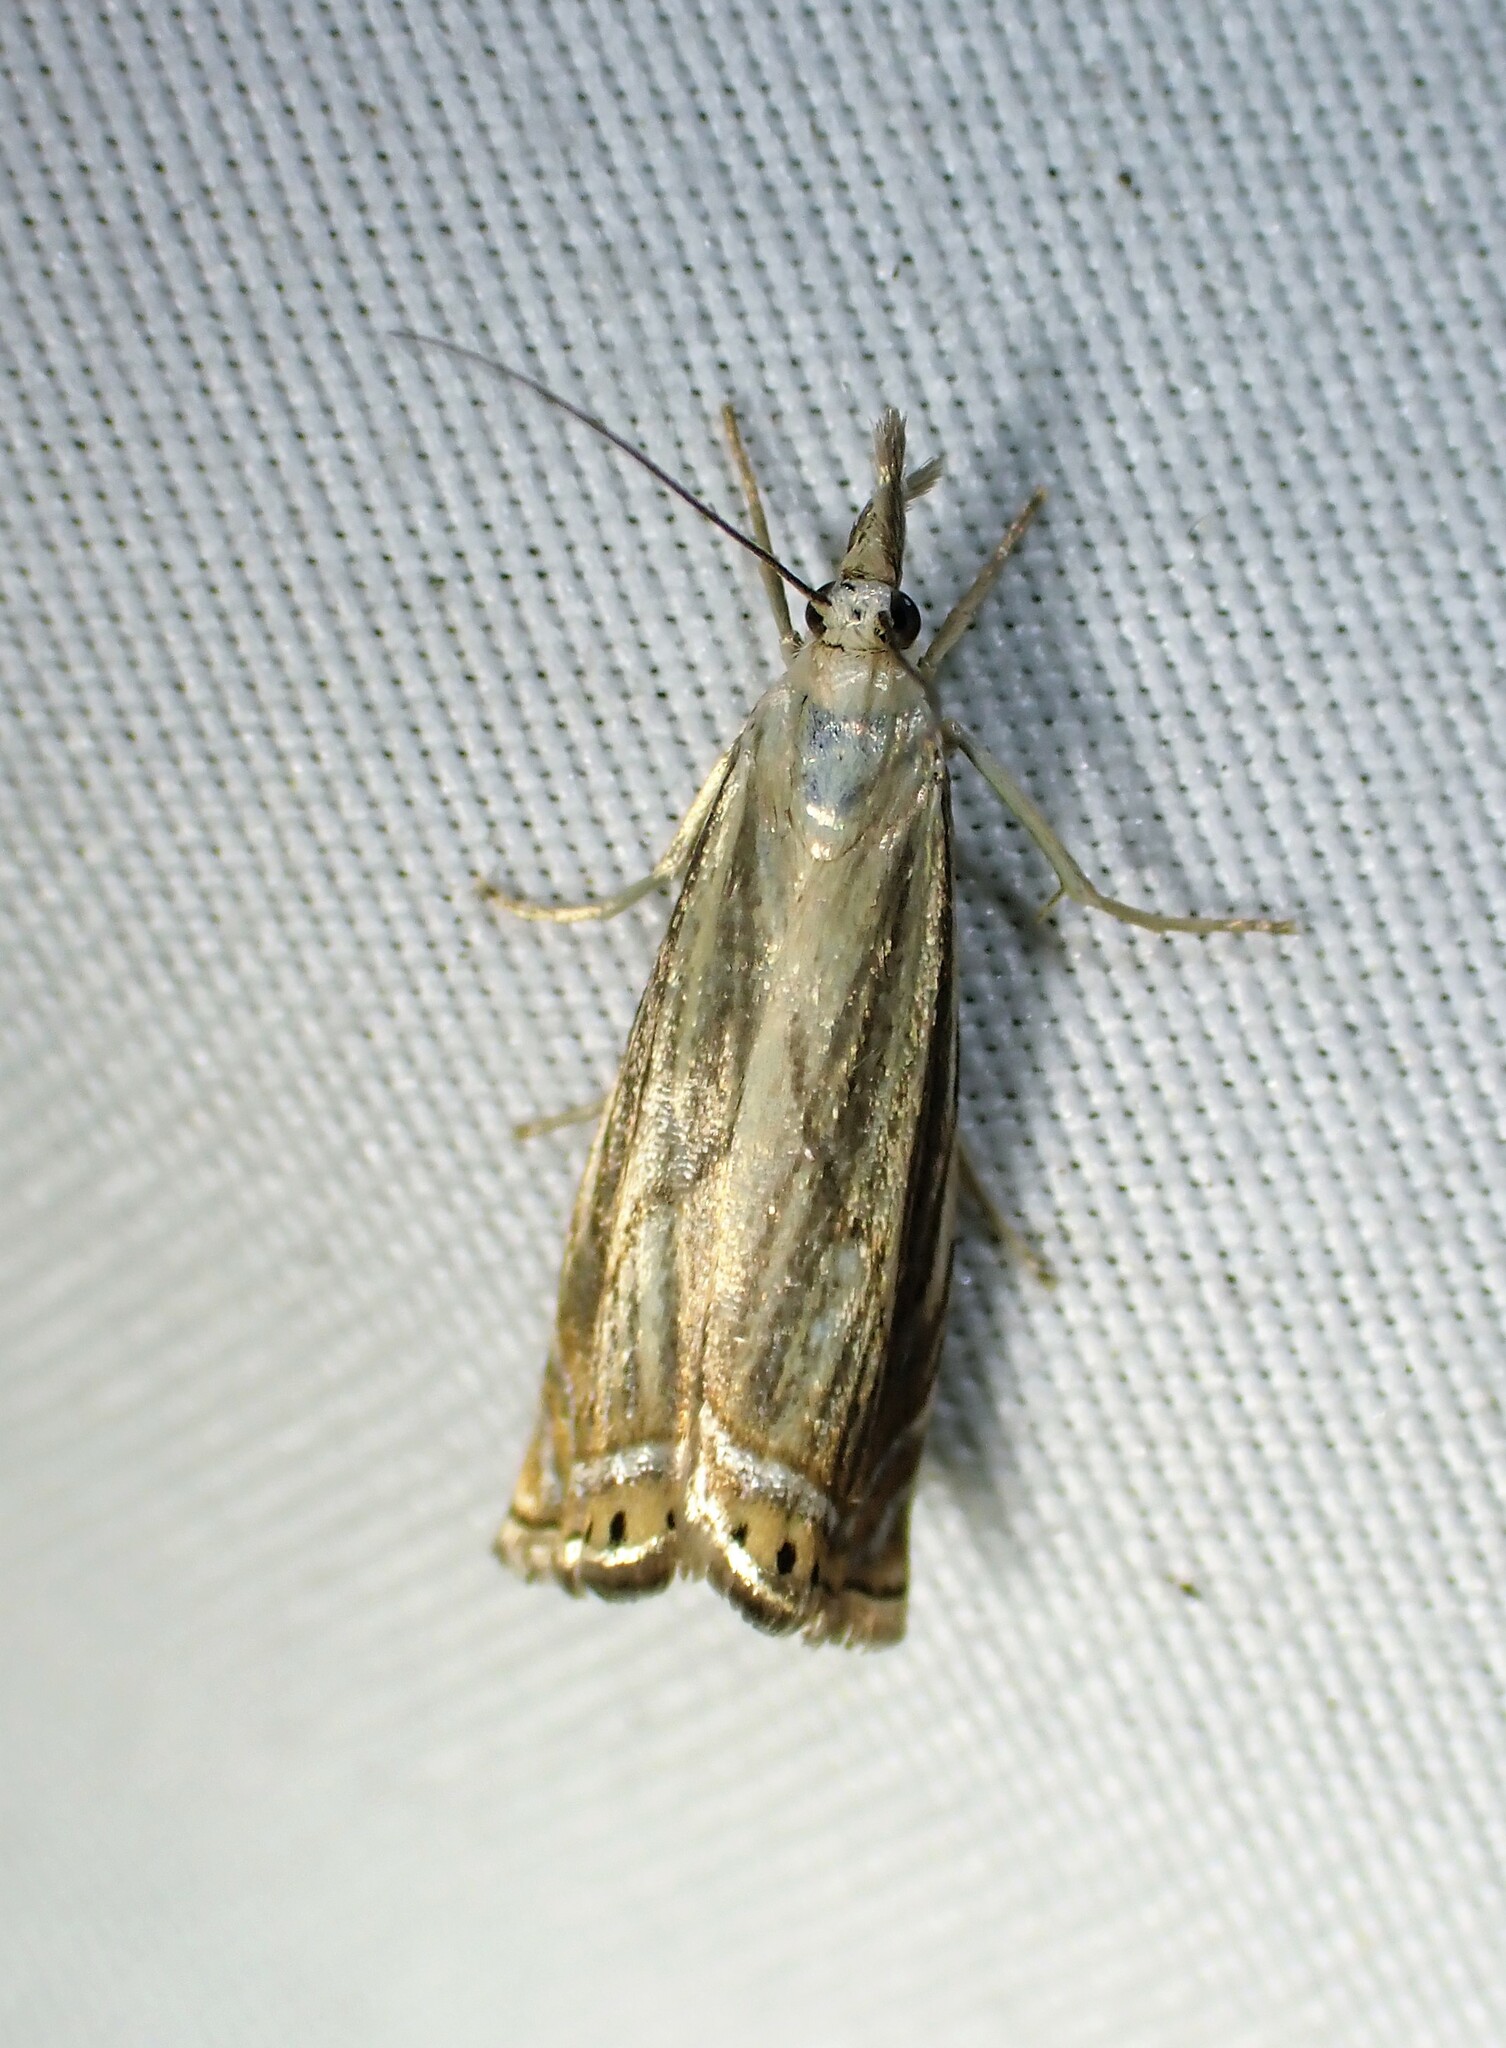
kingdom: Animalia
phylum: Arthropoda
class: Insecta
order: Lepidoptera
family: Crambidae
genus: Chrysoteuchia
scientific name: Chrysoteuchia topiarius
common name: Topiary grass-veneer
